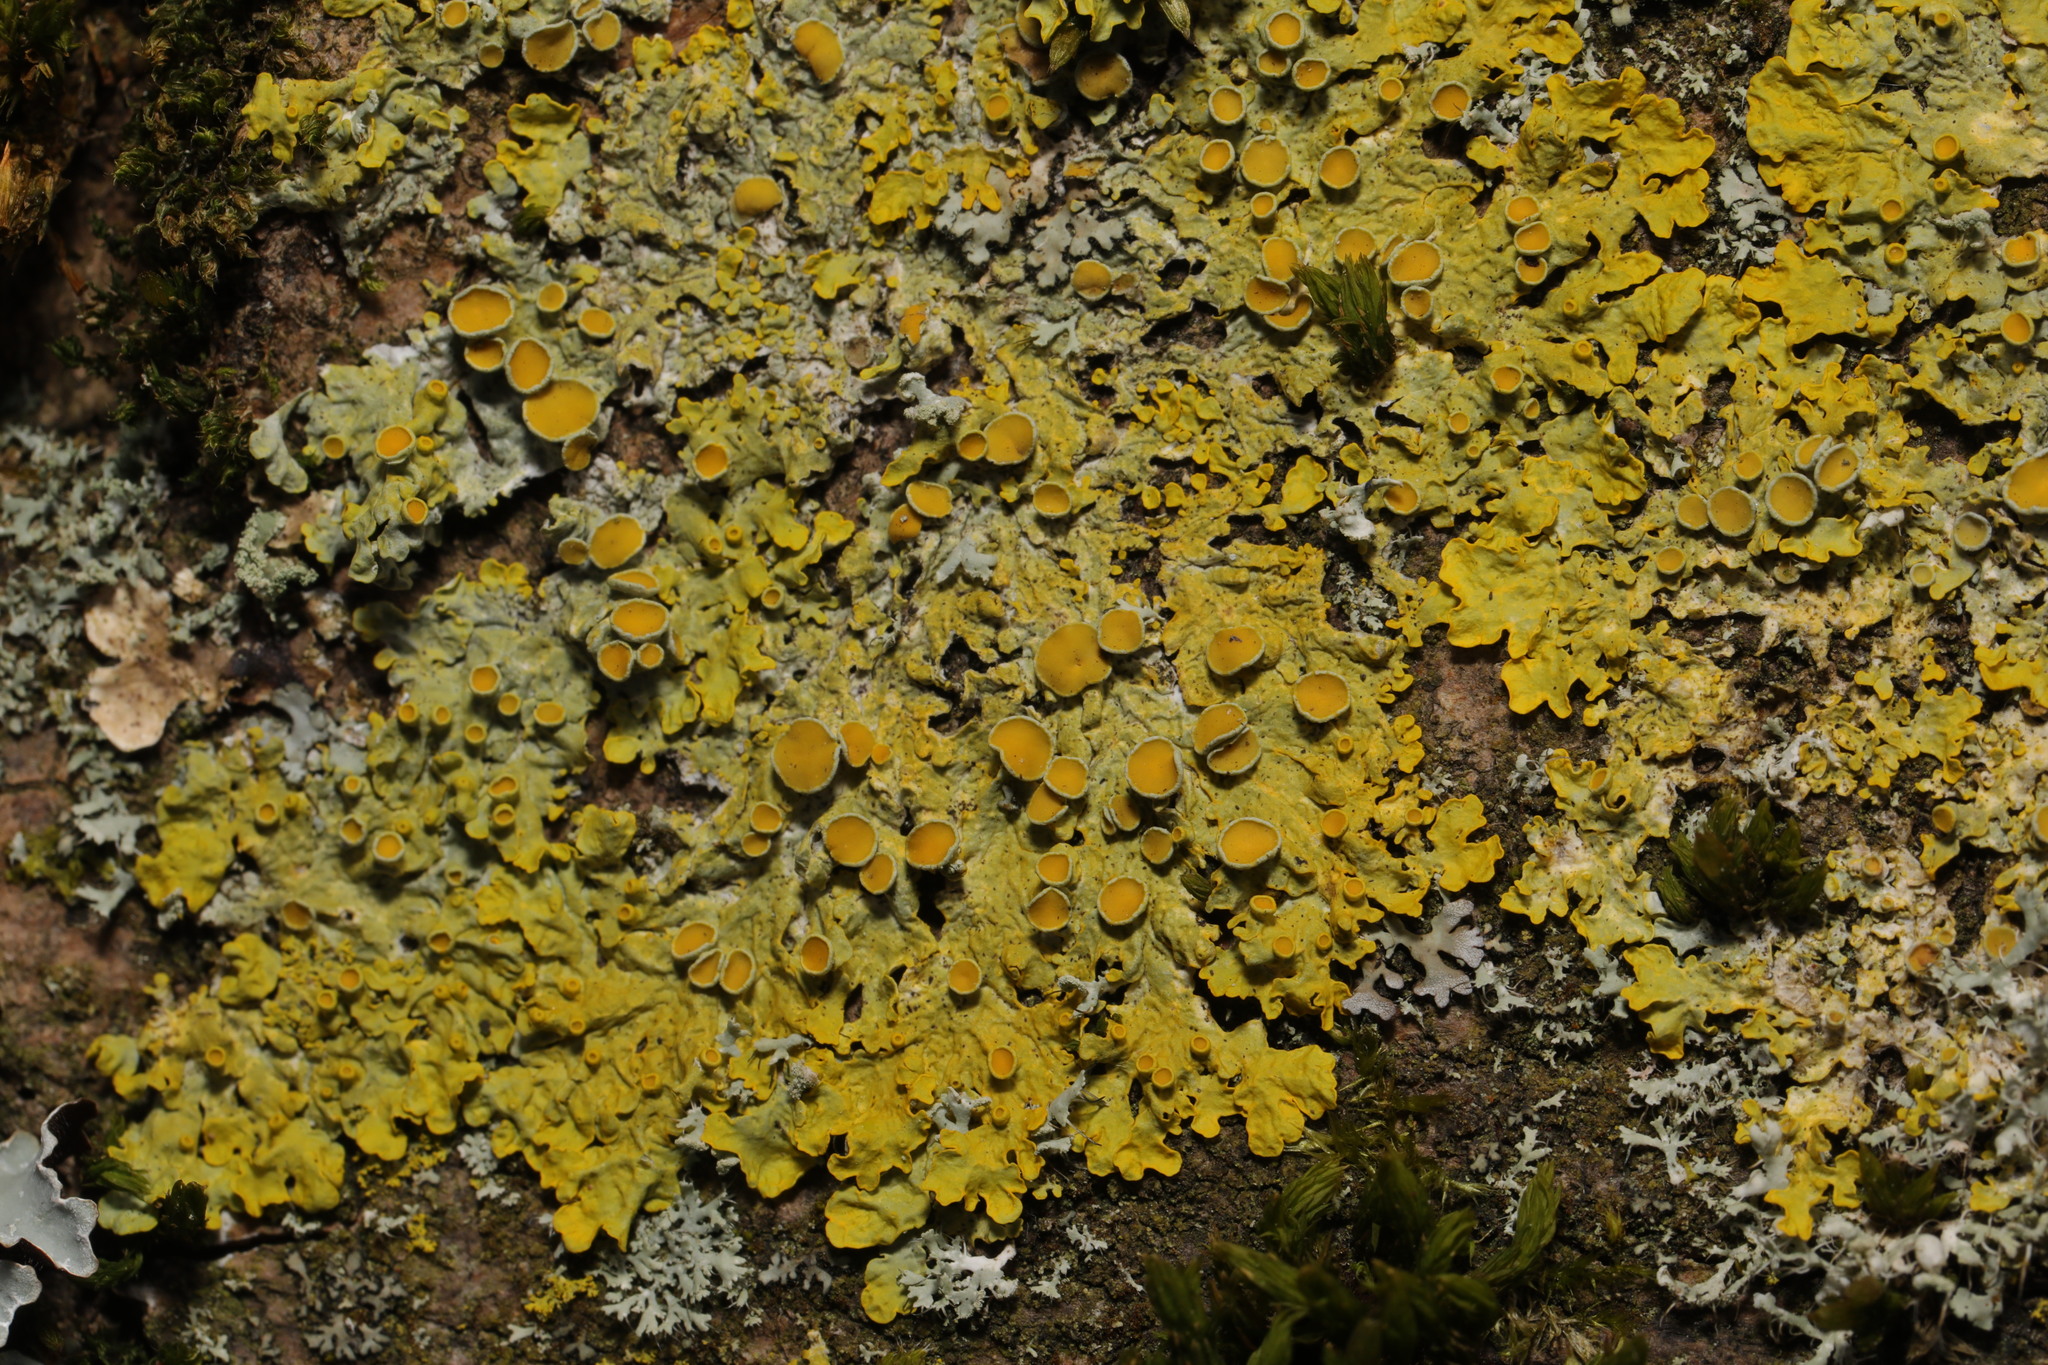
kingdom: Fungi
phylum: Ascomycota
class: Lecanoromycetes
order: Teloschistales
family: Teloschistaceae
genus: Xanthoria
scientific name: Xanthoria parietina
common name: Common orange lichen
